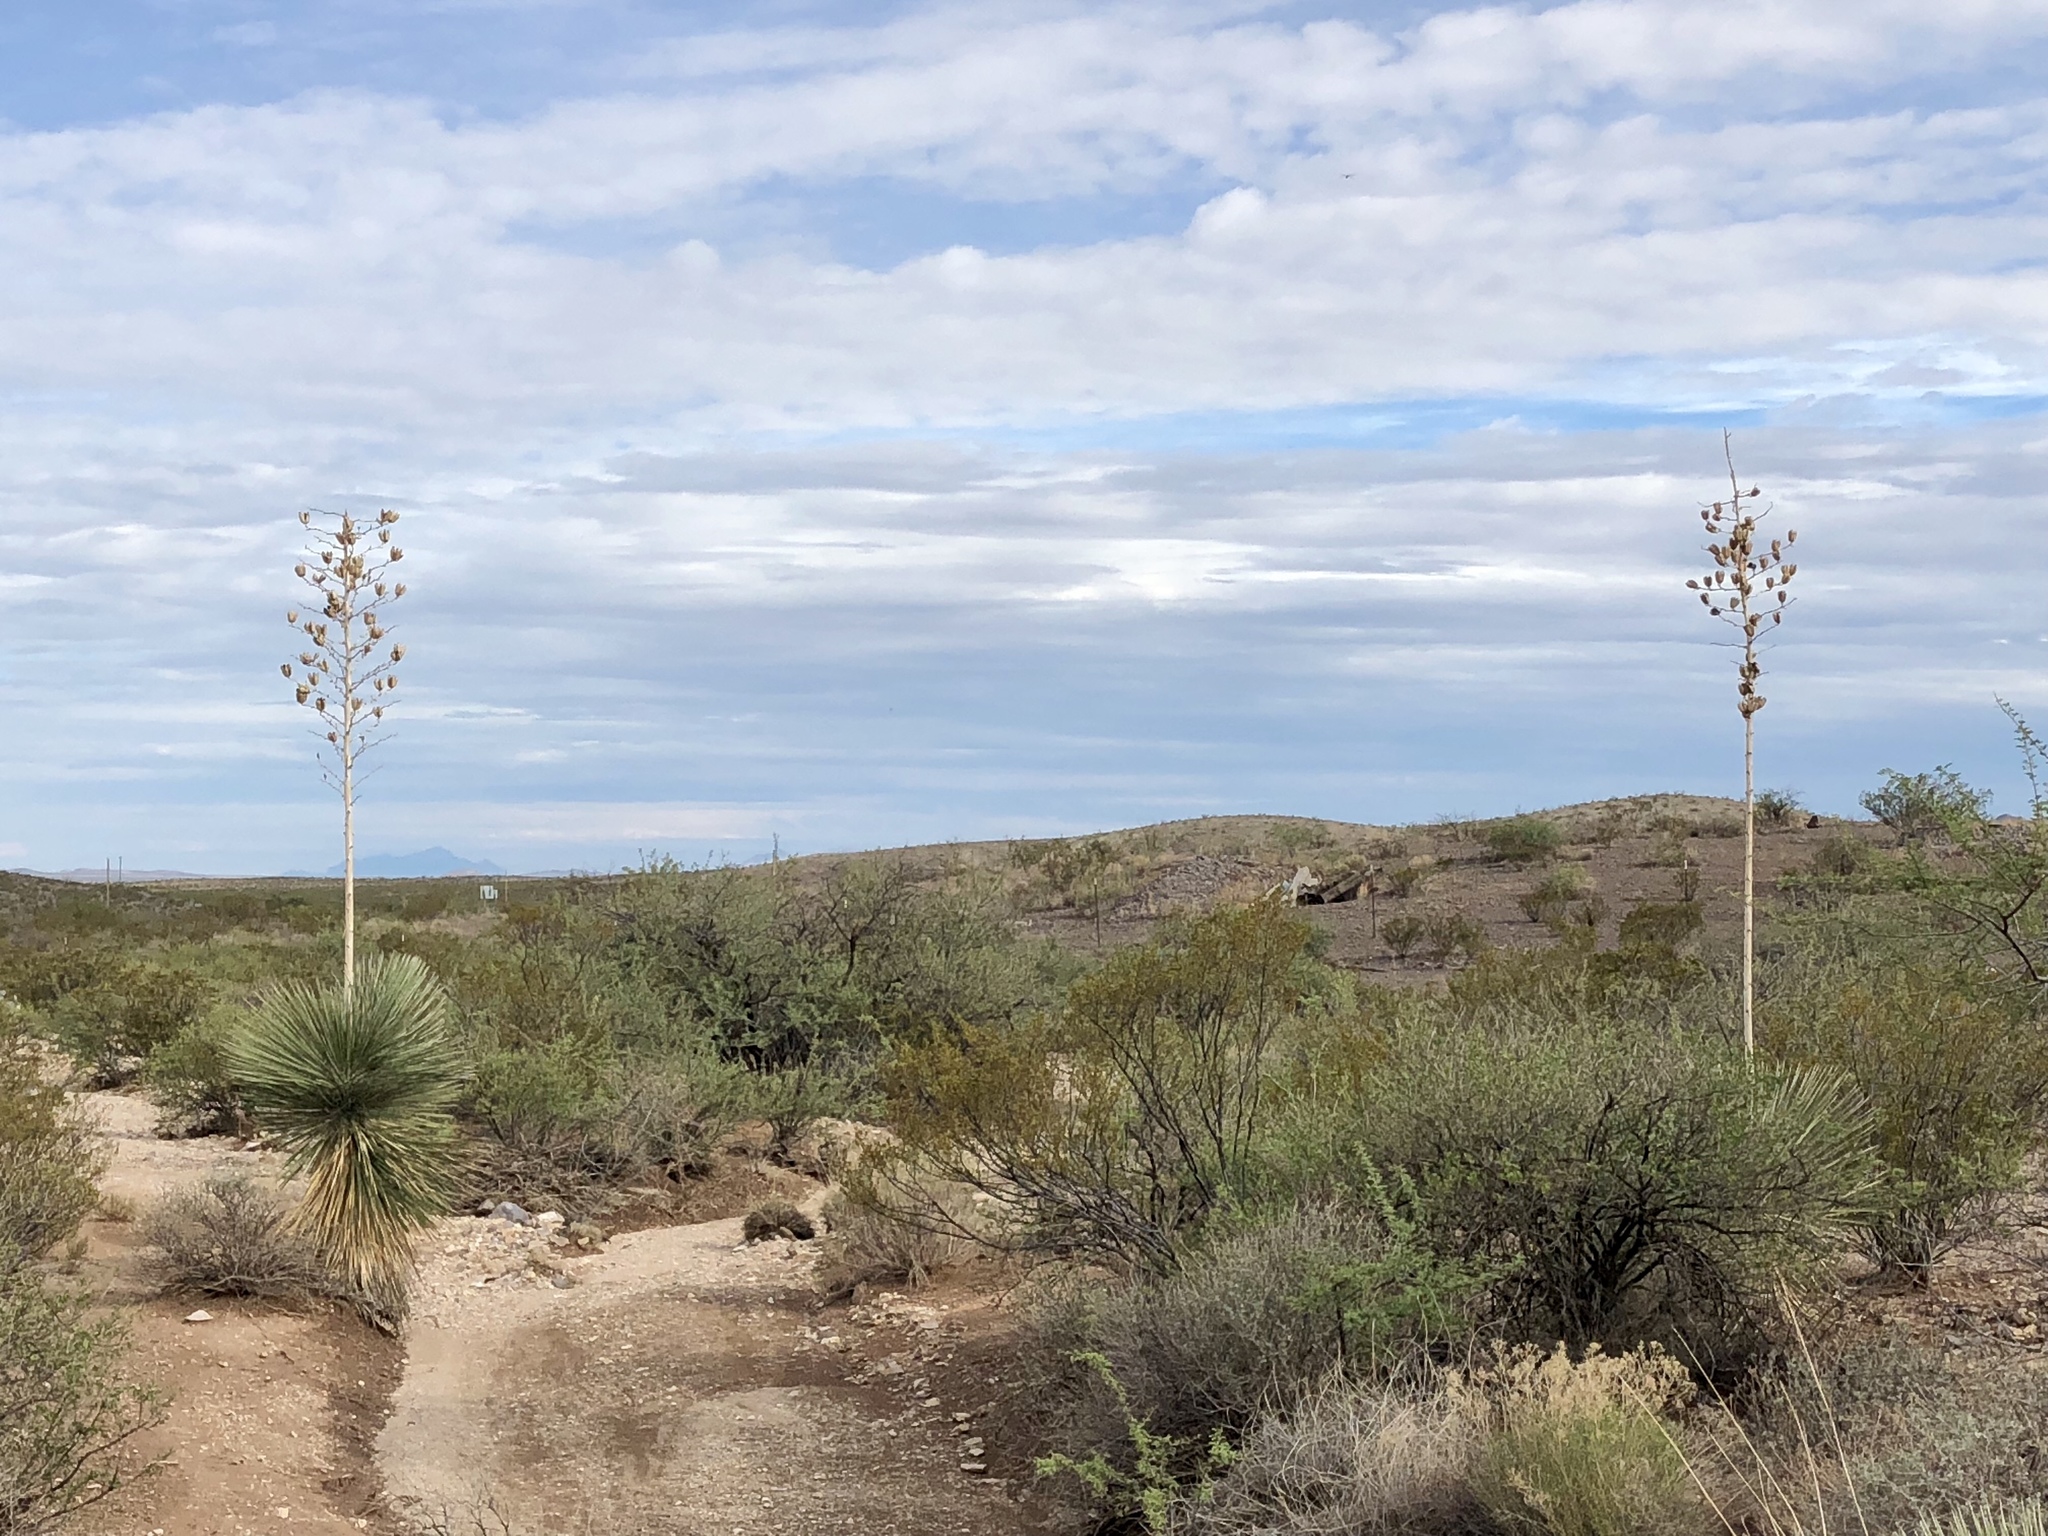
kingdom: Plantae
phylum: Tracheophyta
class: Liliopsida
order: Asparagales
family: Asparagaceae
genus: Yucca
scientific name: Yucca elata
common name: Palmella
